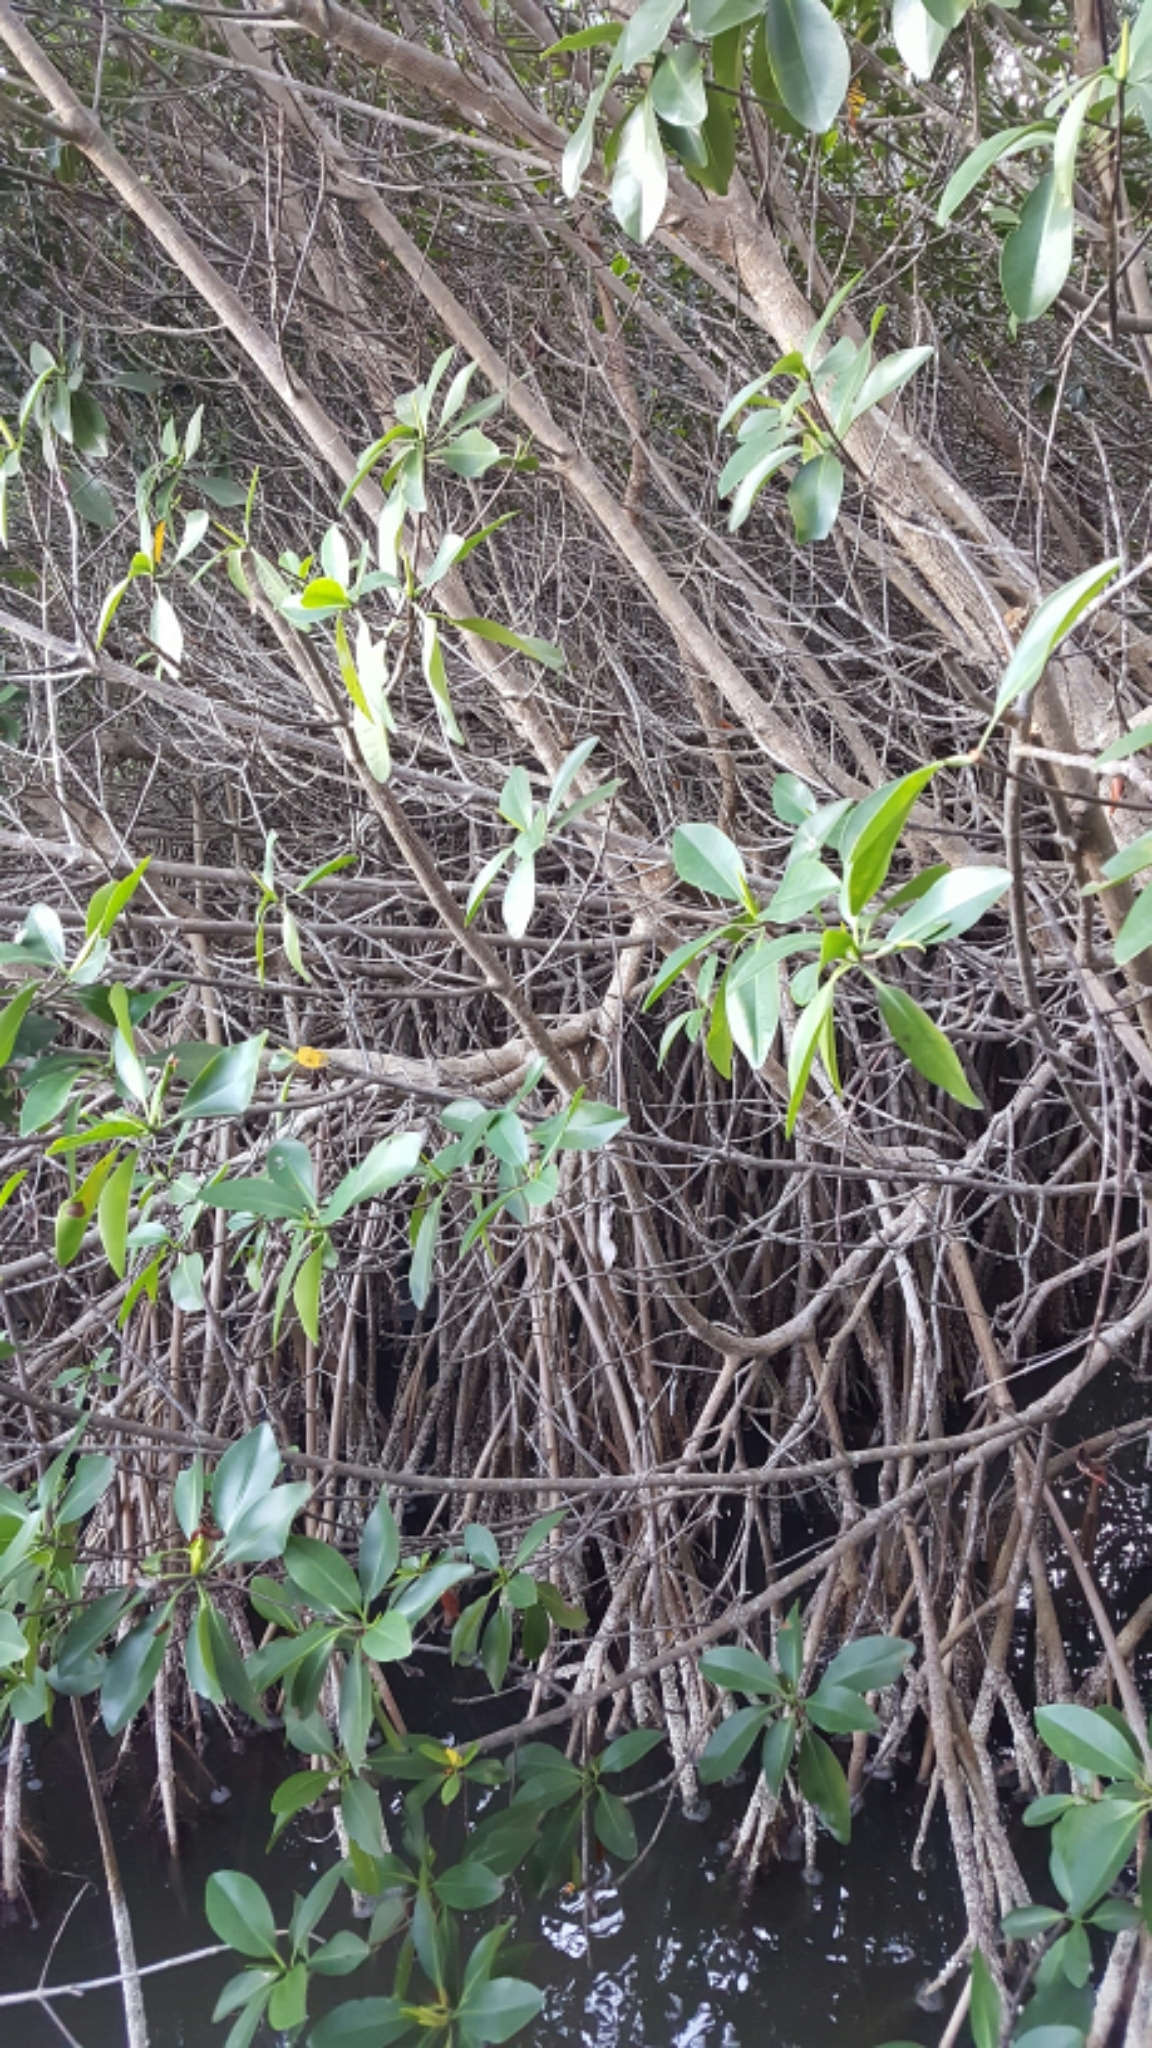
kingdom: Plantae
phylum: Tracheophyta
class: Magnoliopsida
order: Malpighiales
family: Rhizophoraceae
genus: Rhizophora
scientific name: Rhizophora mangle
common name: Red mangrove
